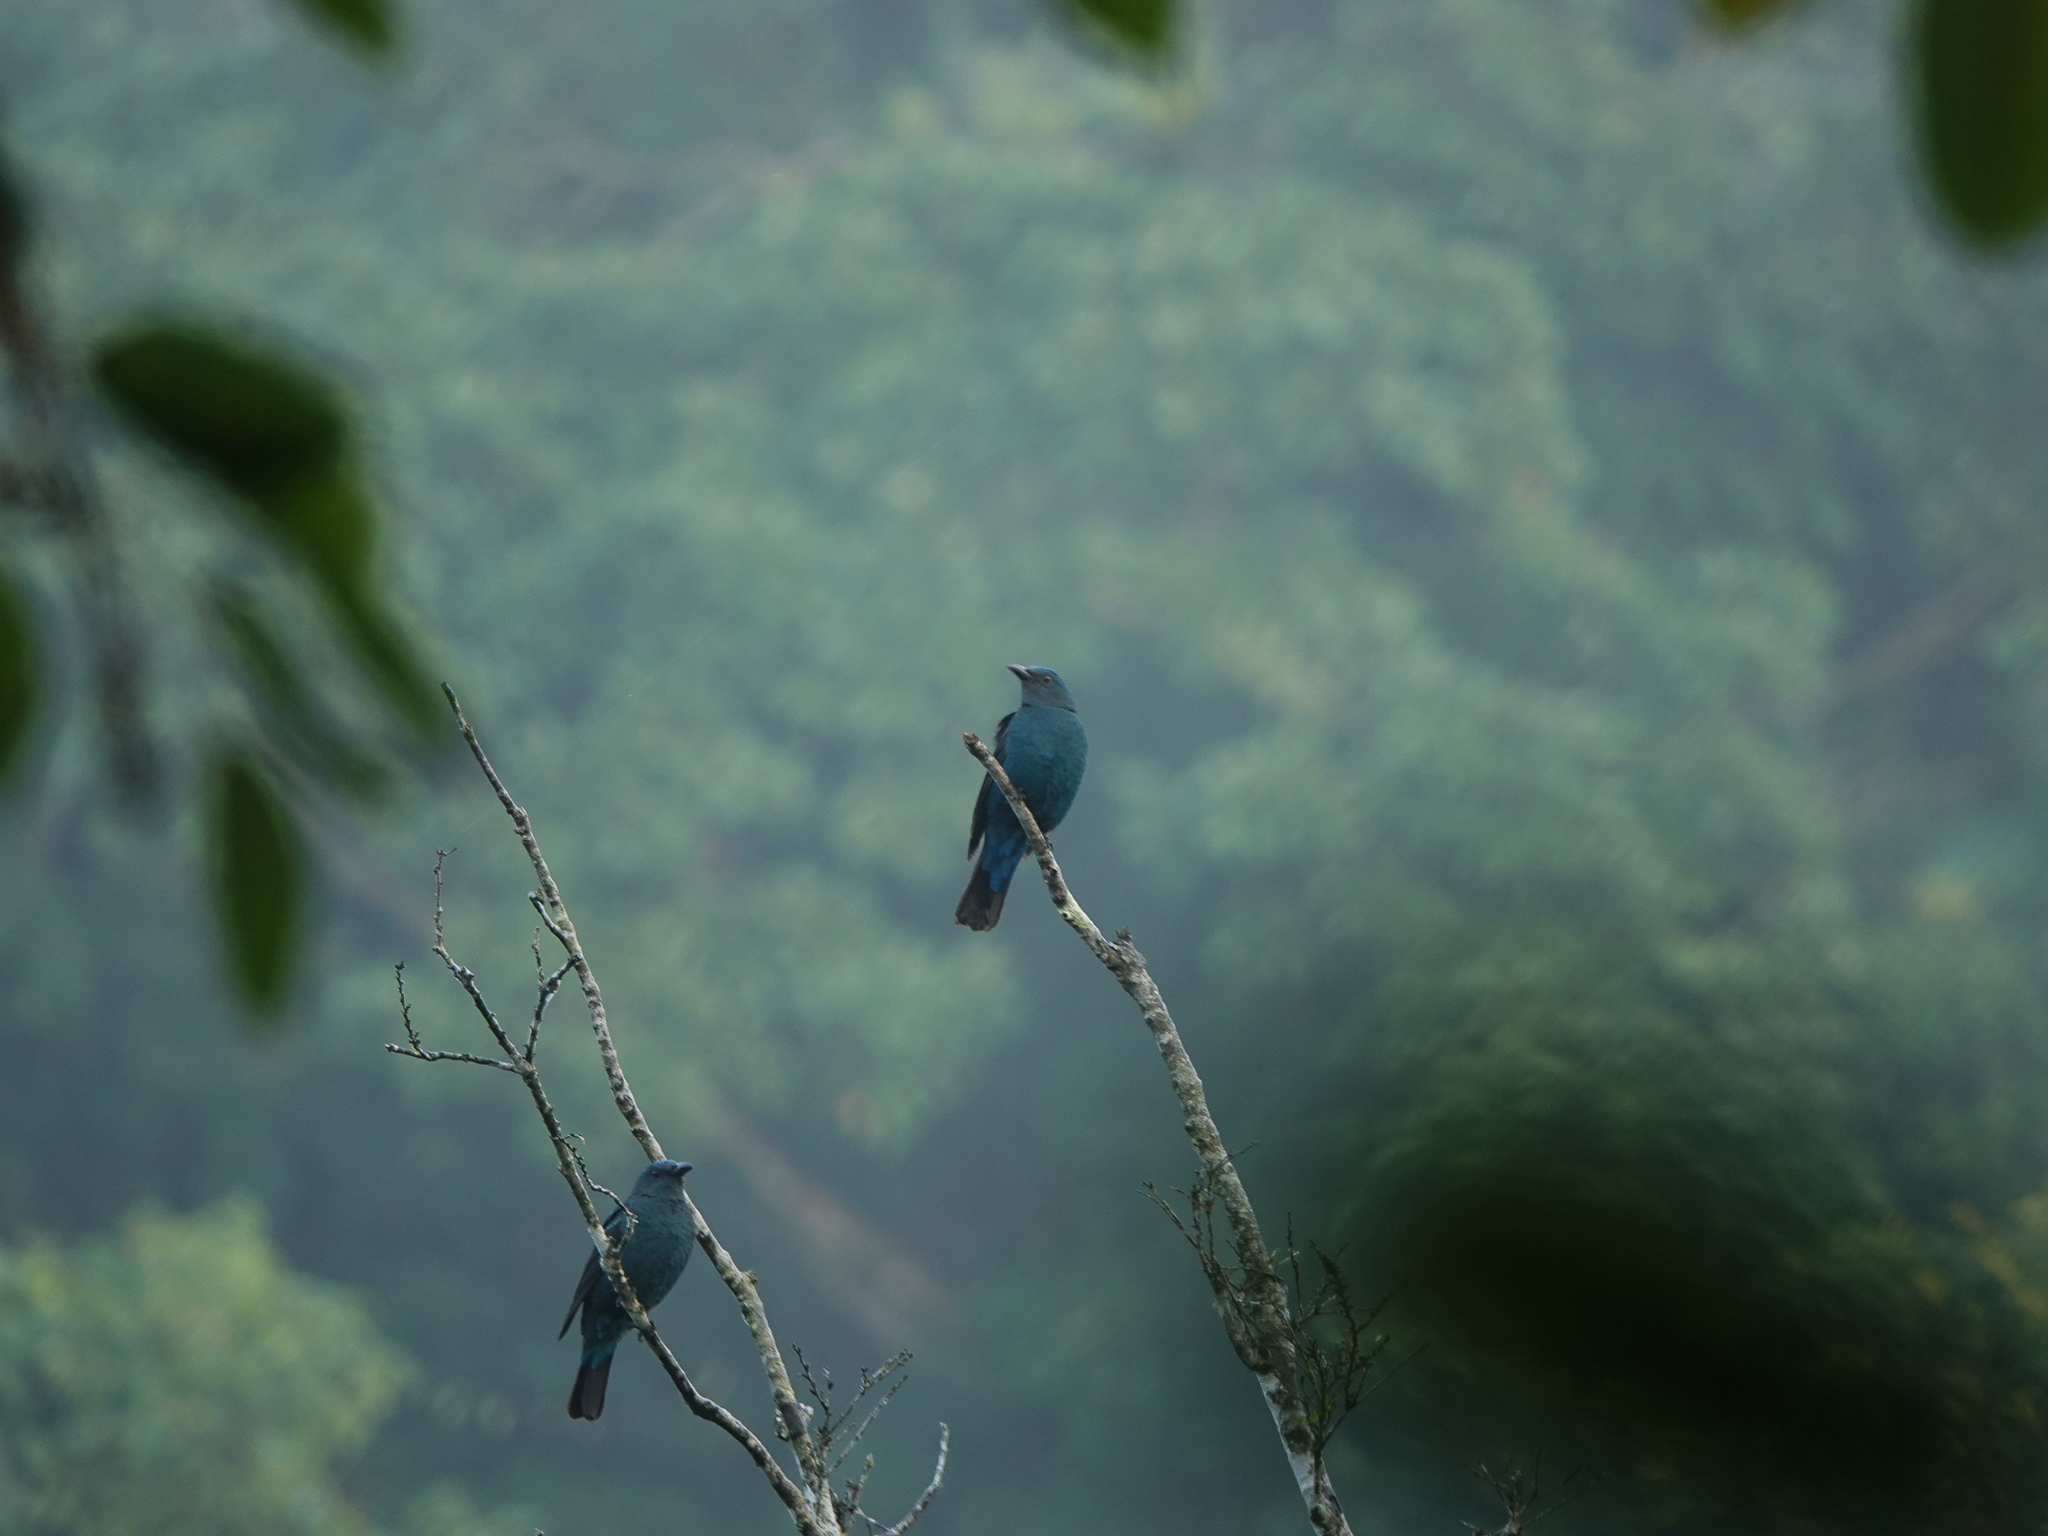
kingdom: Animalia
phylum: Chordata
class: Aves
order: Passeriformes
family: Irenidae
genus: Irena
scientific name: Irena puella
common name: Asian fairy-bluebird
